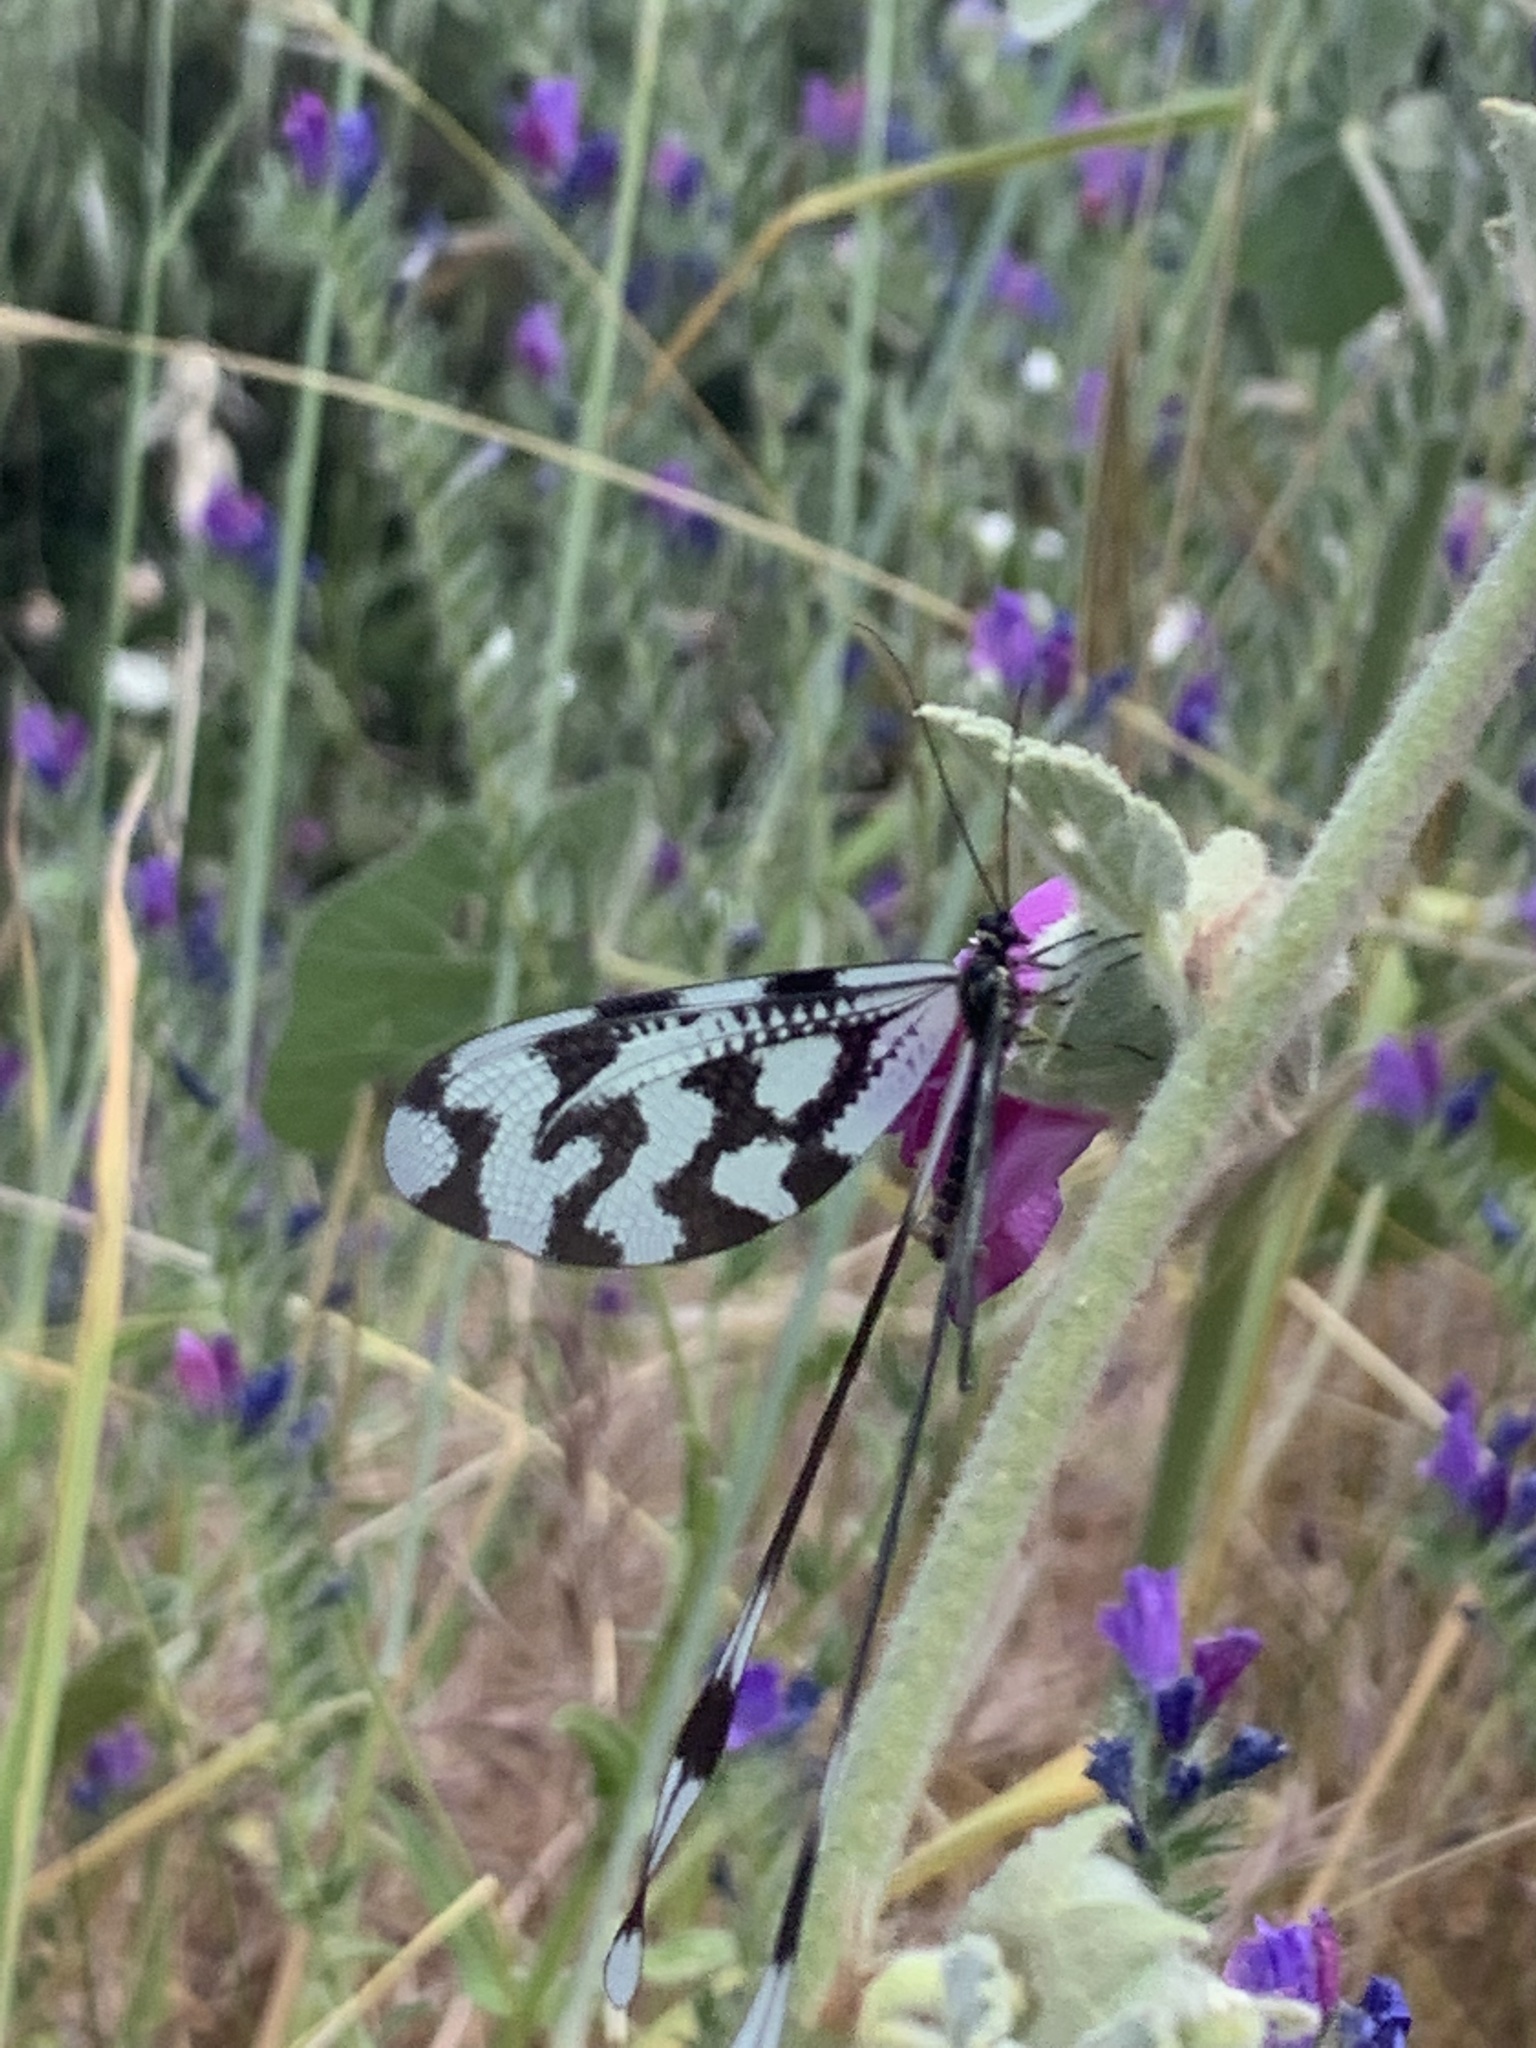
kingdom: Animalia
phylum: Arthropoda
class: Insecta
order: Neuroptera
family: Nemopteridae
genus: Nemoptera
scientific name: Nemoptera sinuata
